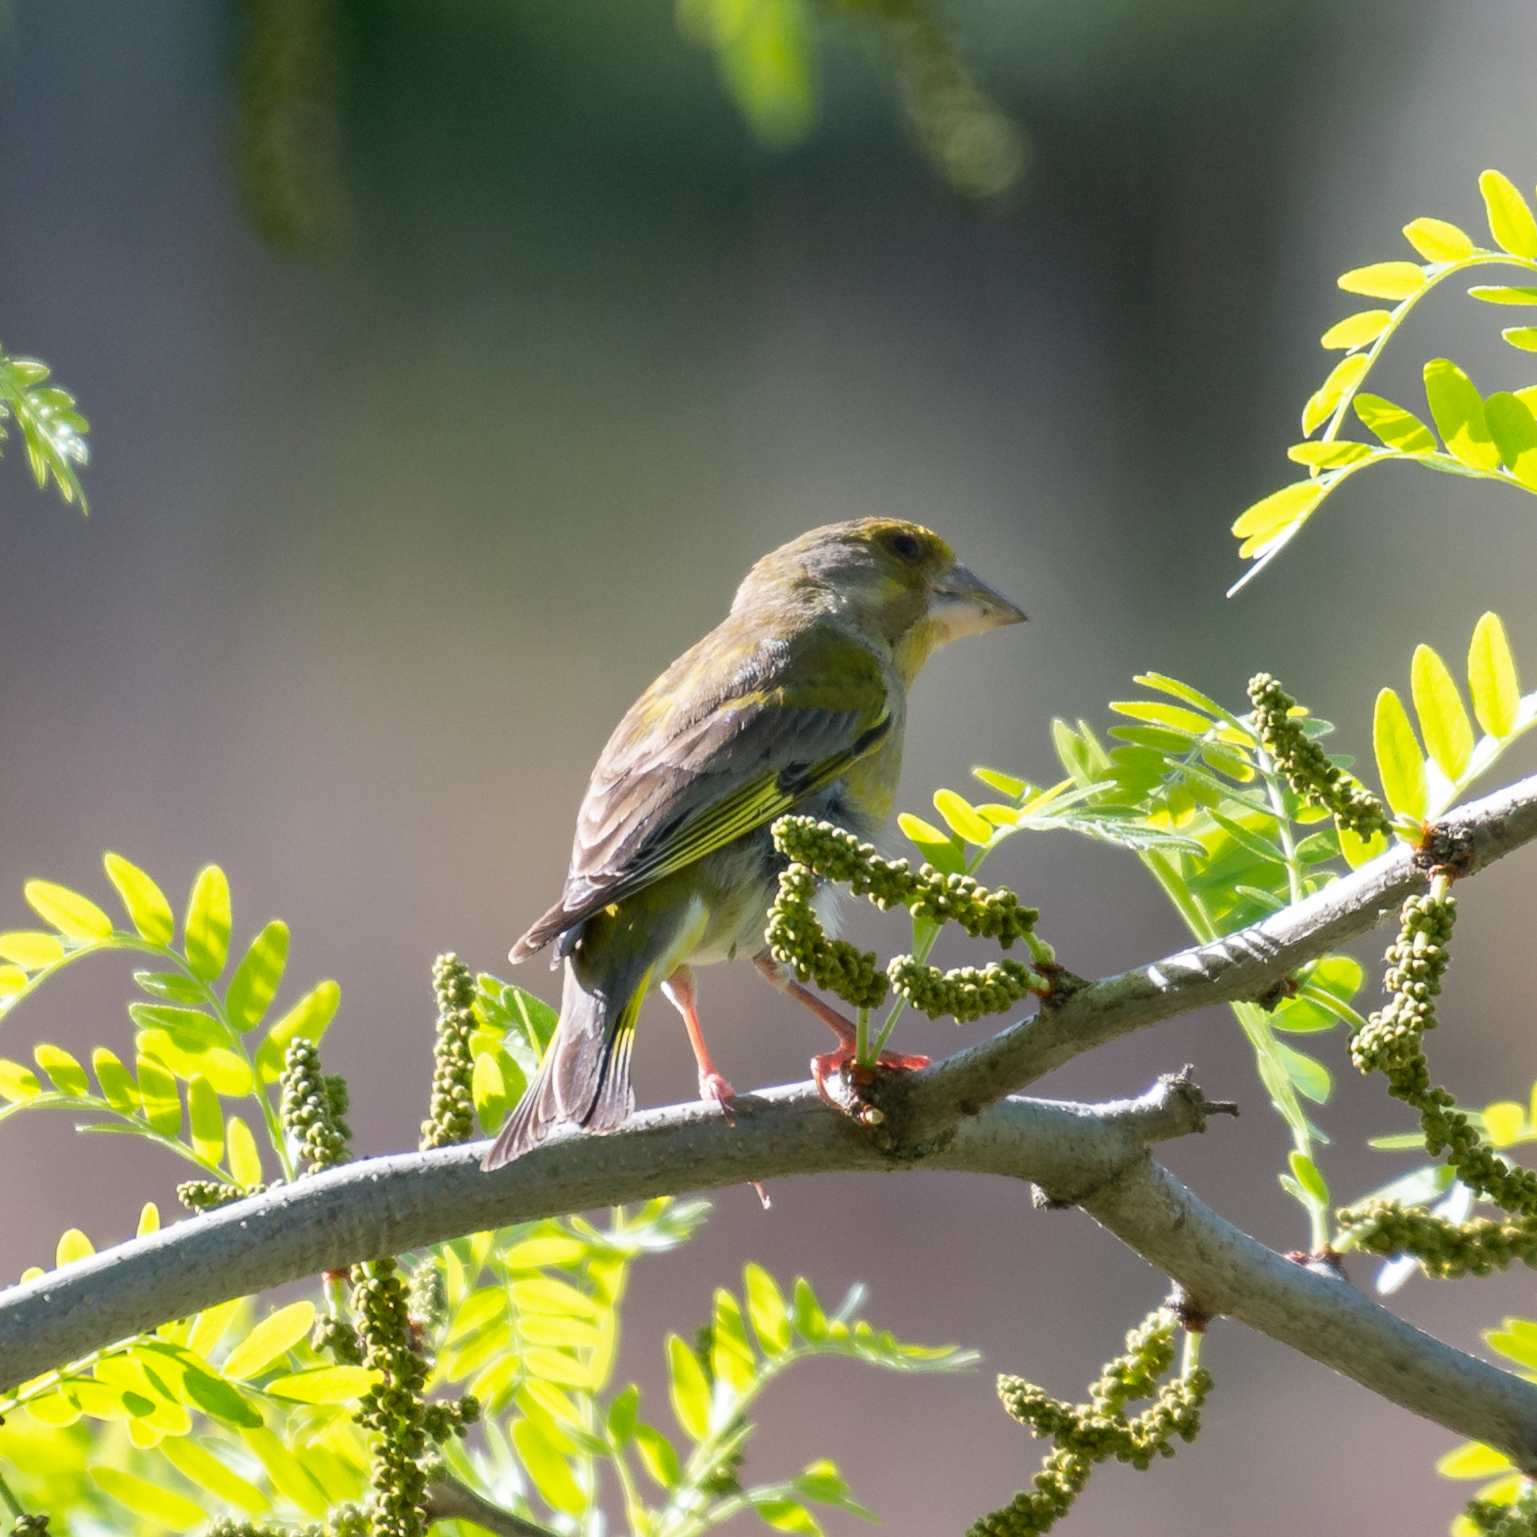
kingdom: Plantae
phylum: Tracheophyta
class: Liliopsida
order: Poales
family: Poaceae
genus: Chloris
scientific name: Chloris chloris
